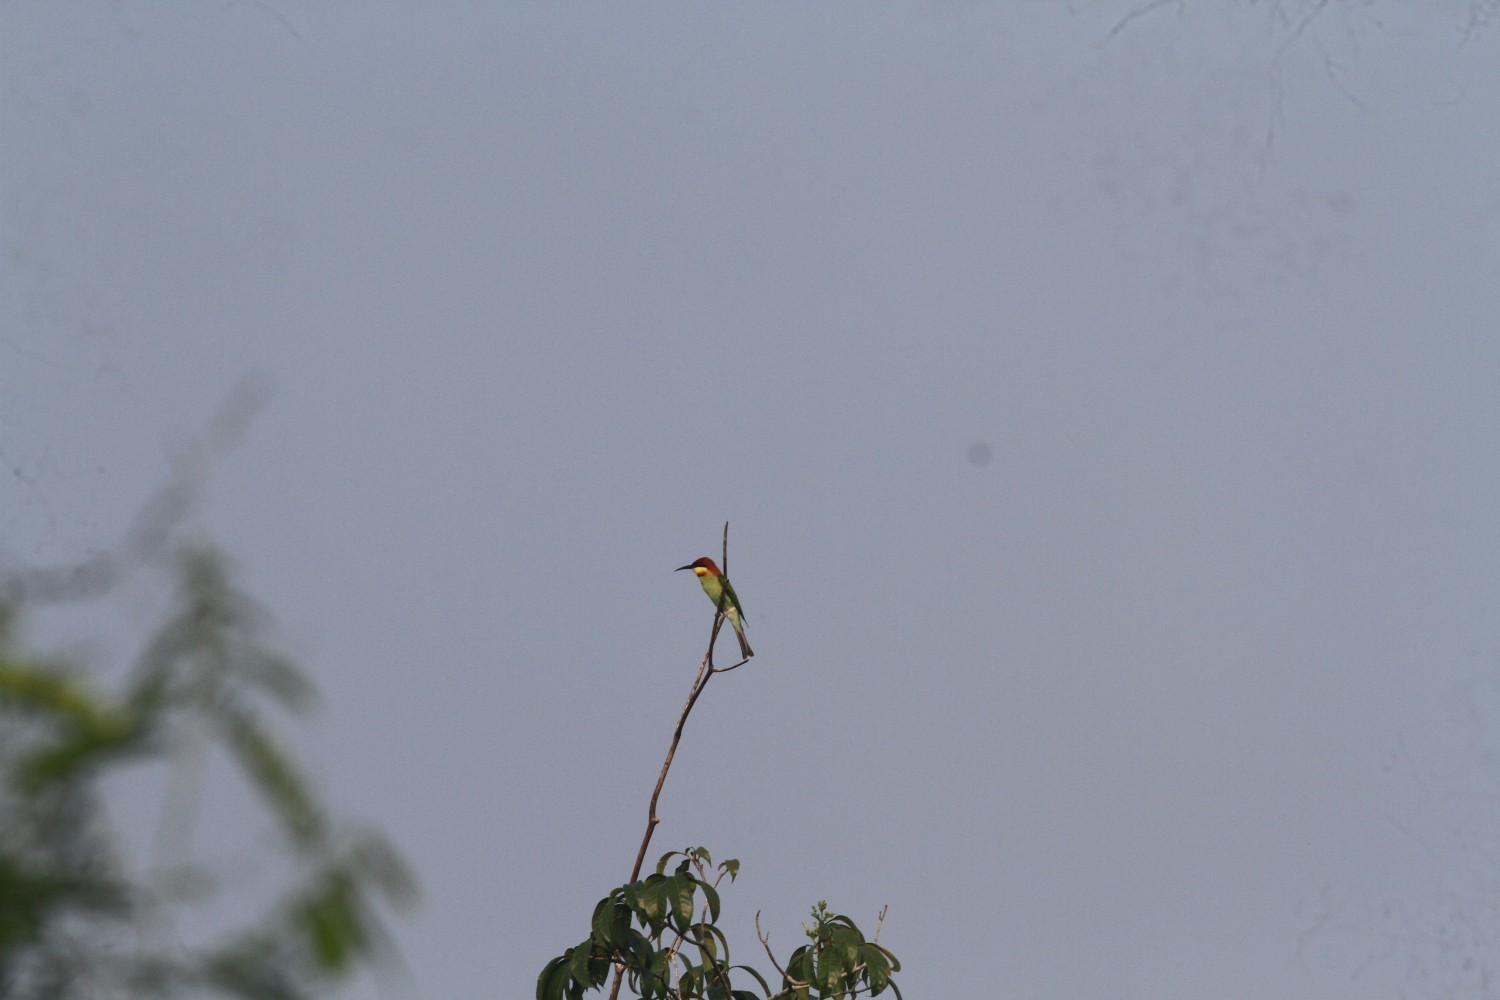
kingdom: Animalia
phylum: Chordata
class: Aves
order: Coraciiformes
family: Meropidae
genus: Merops
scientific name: Merops leschenaulti
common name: Chestnut-headed bee-eater
